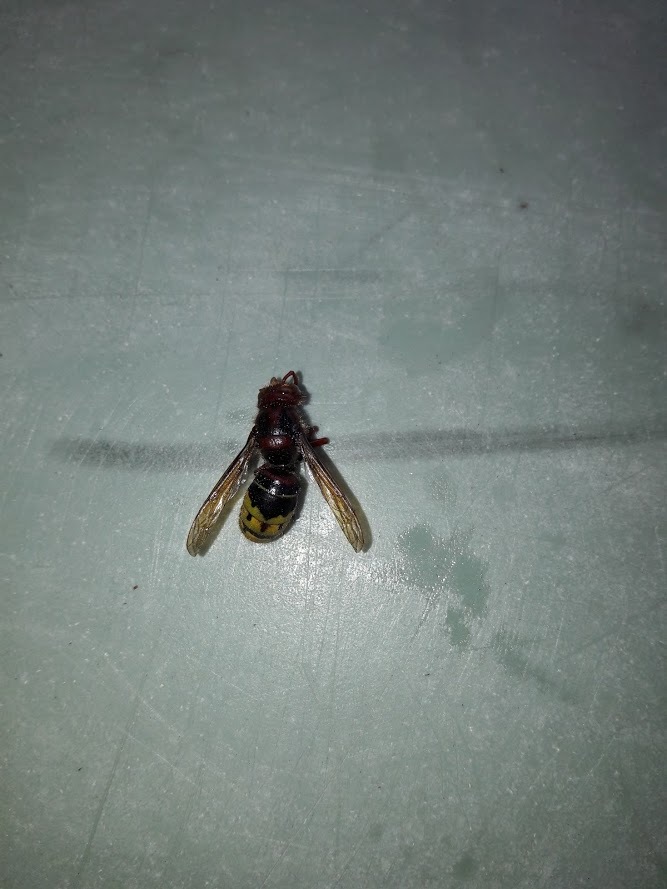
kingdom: Animalia
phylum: Arthropoda
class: Insecta
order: Hymenoptera
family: Vespidae
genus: Vespa
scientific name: Vespa crabro
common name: Hornet
